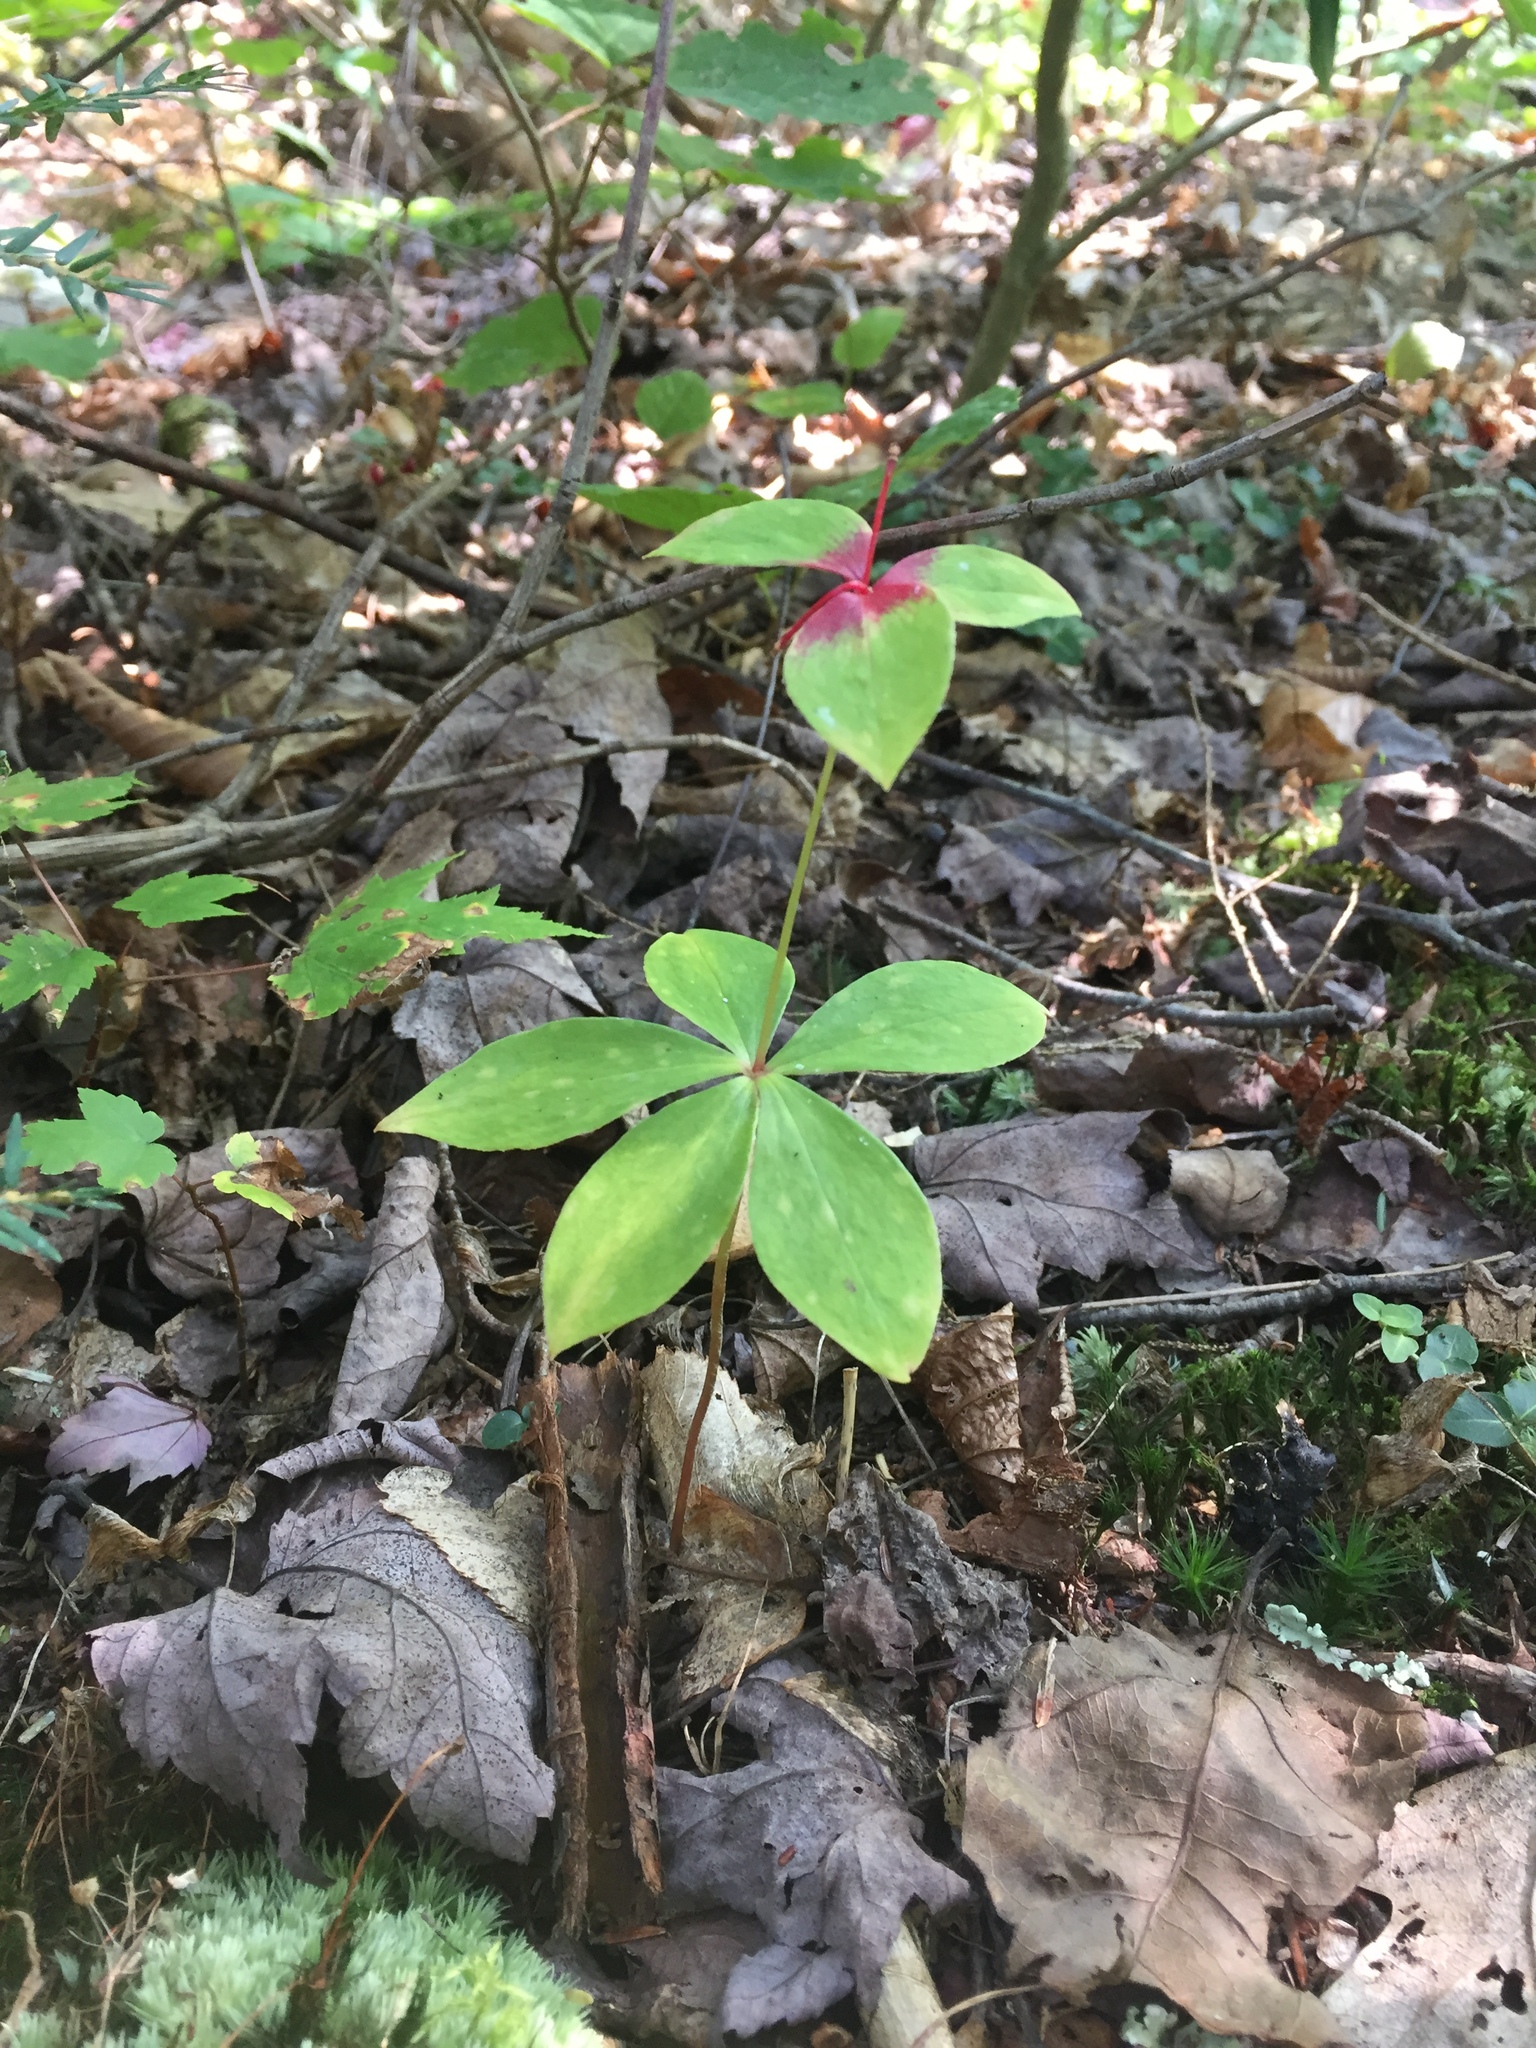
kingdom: Plantae
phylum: Tracheophyta
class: Liliopsida
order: Liliales
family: Liliaceae
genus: Medeola
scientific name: Medeola virginiana
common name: Indian cucumber-root
